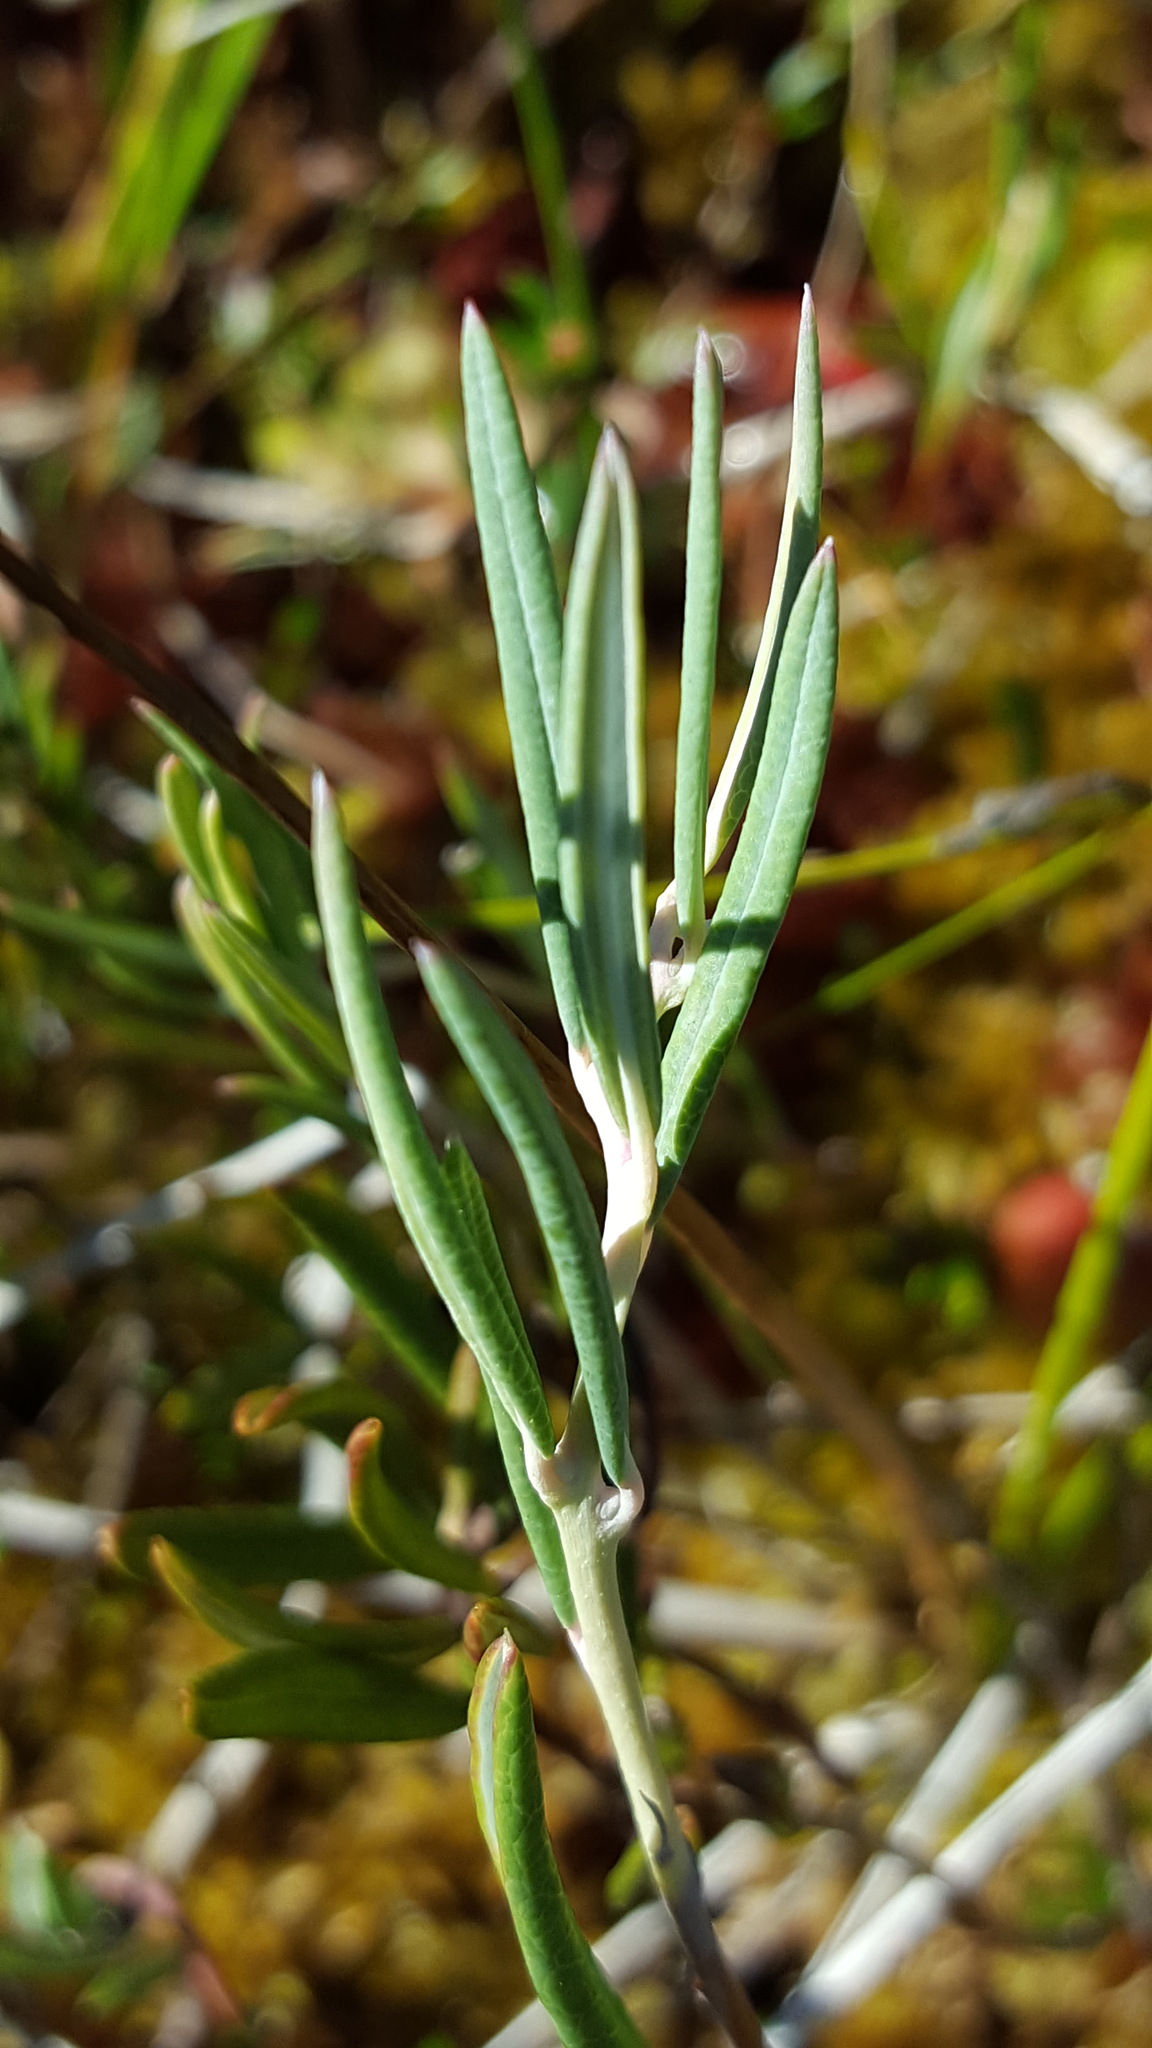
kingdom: Plantae
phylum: Tracheophyta
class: Magnoliopsida
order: Ericales
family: Ericaceae
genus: Andromeda
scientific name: Andromeda polifolia
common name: Bog-rosemary
